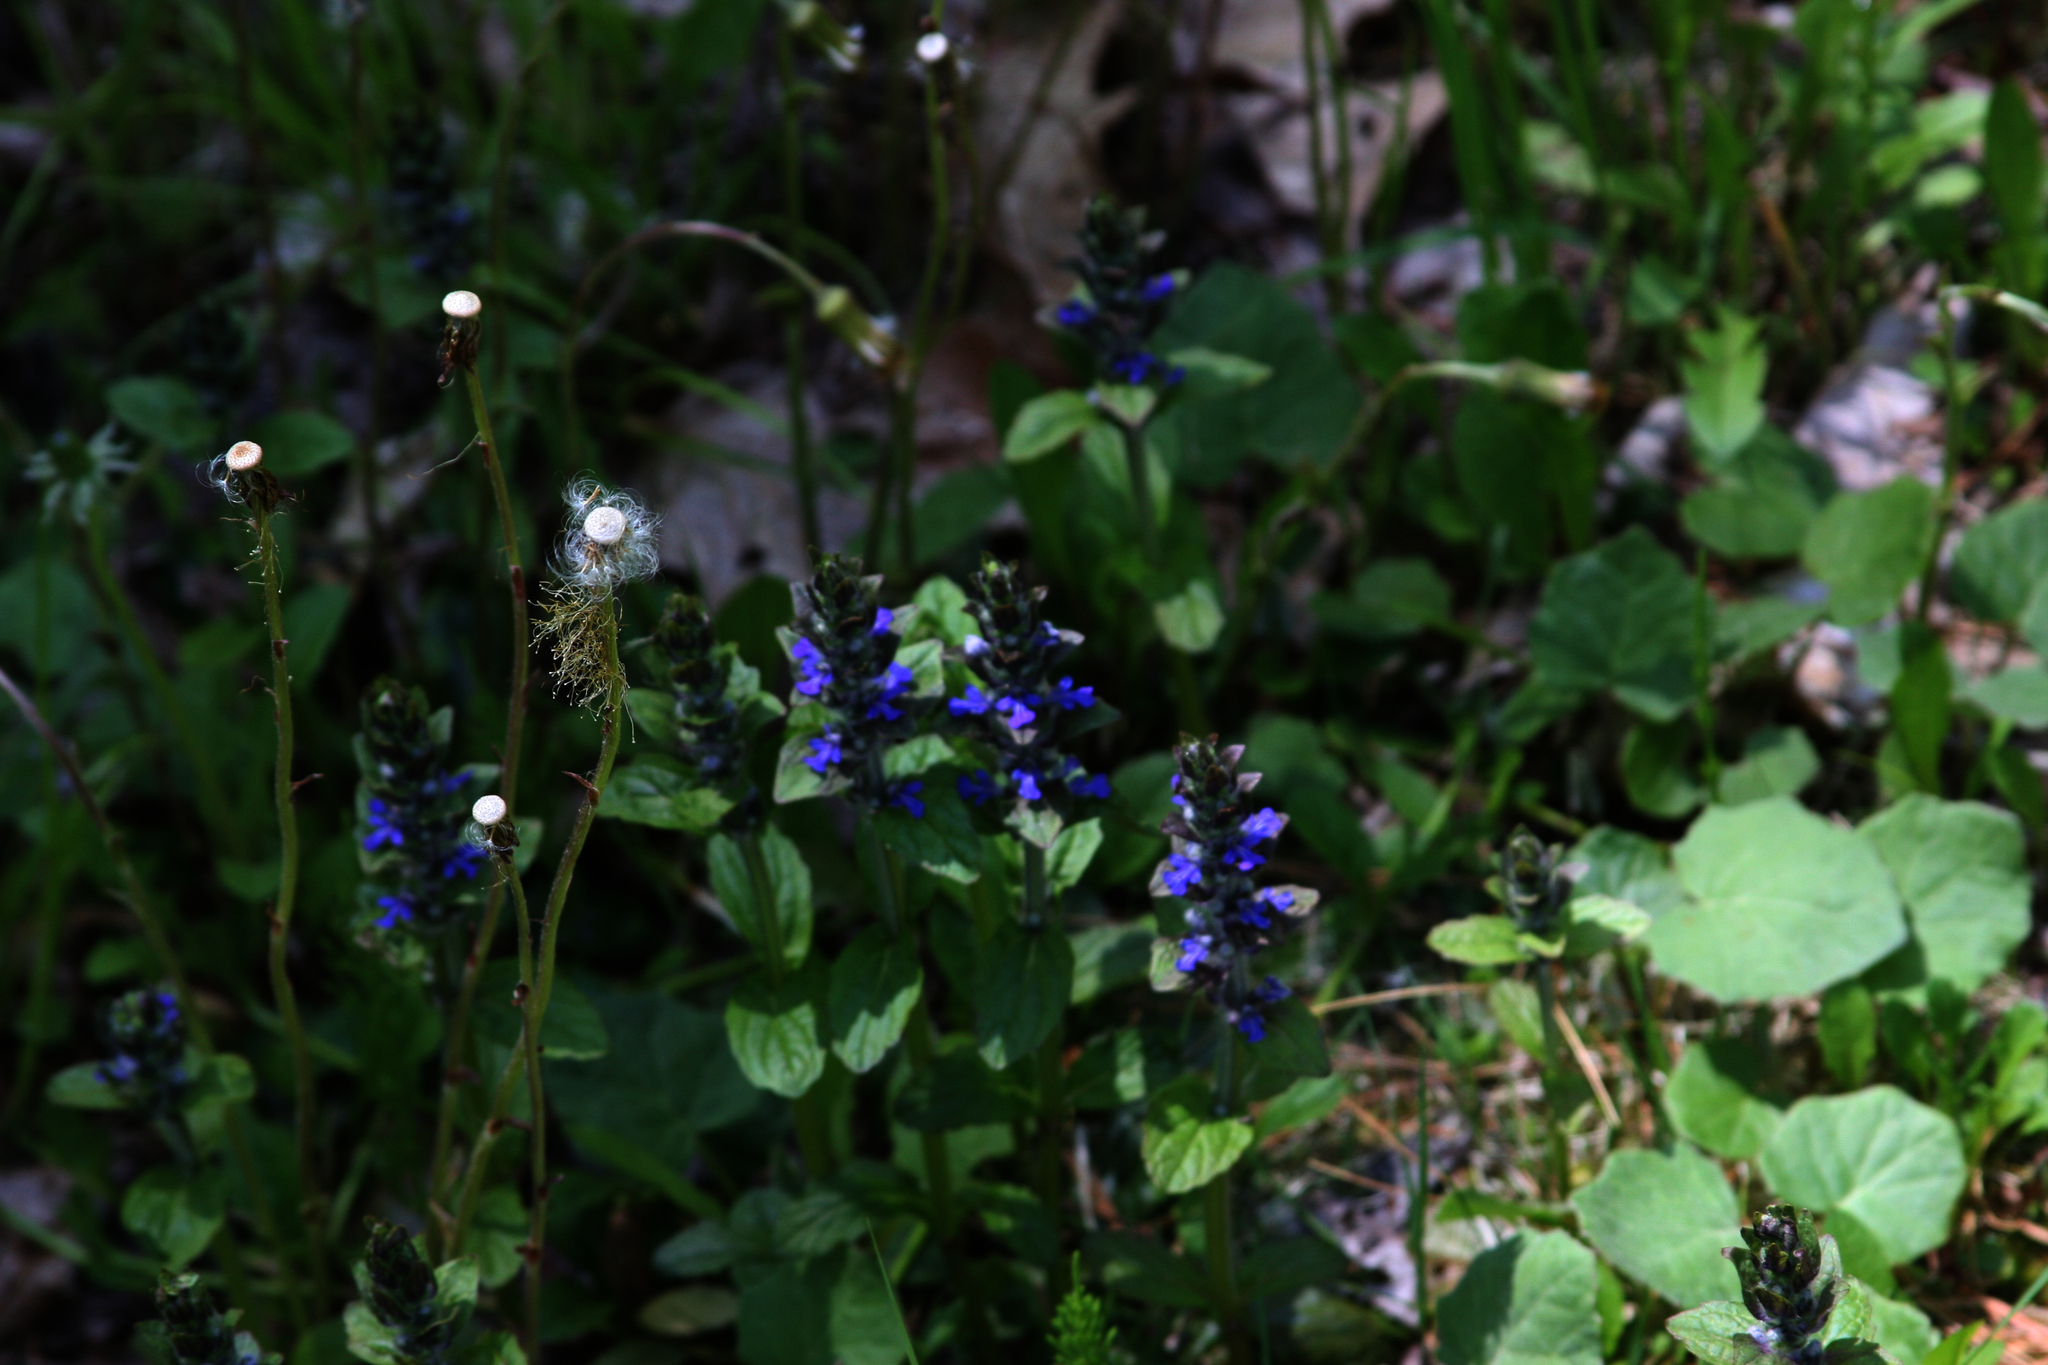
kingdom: Plantae
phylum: Tracheophyta
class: Magnoliopsida
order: Lamiales
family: Lamiaceae
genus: Ajuga
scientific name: Ajuga reptans
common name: Bugle
